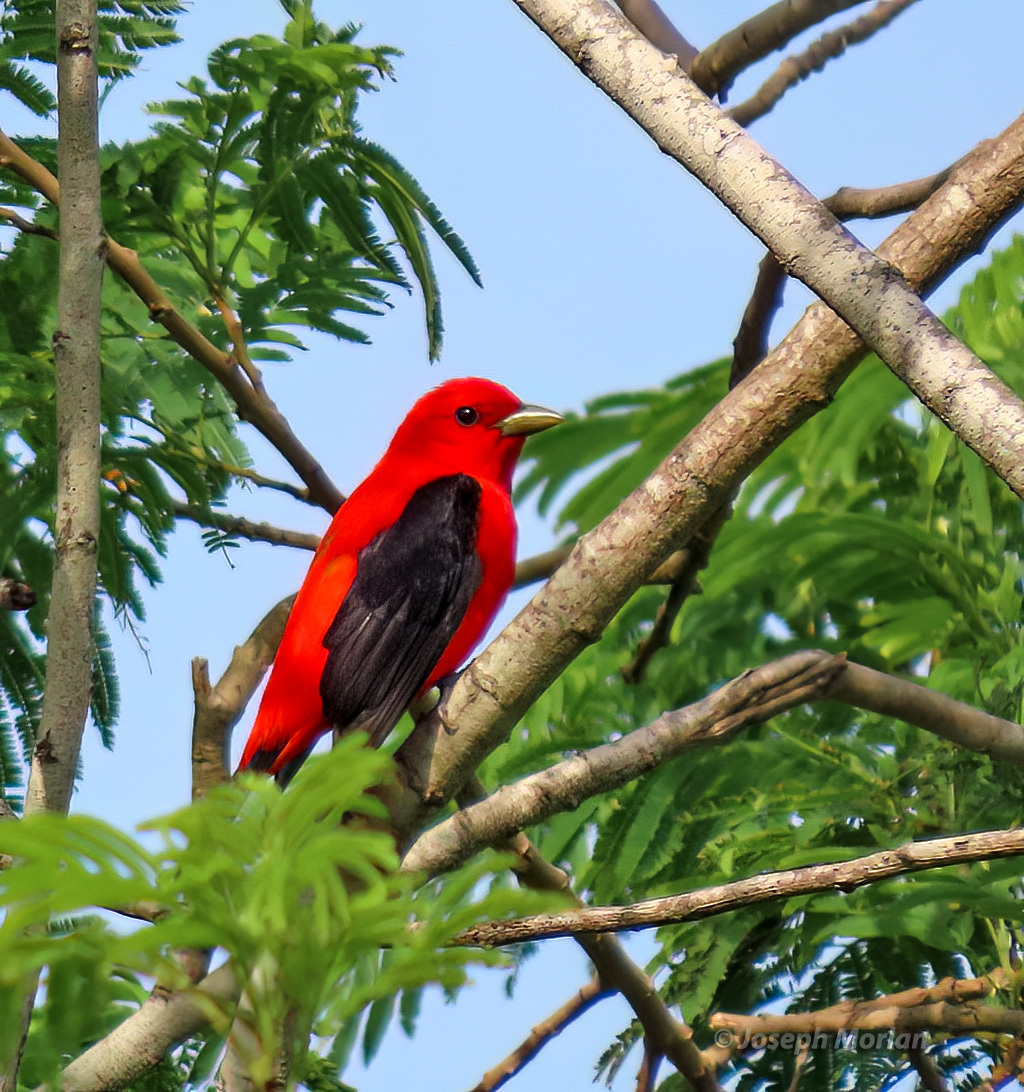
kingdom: Animalia
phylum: Chordata
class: Aves
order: Passeriformes
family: Cardinalidae
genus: Piranga
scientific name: Piranga olivacea
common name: Scarlet tanager
